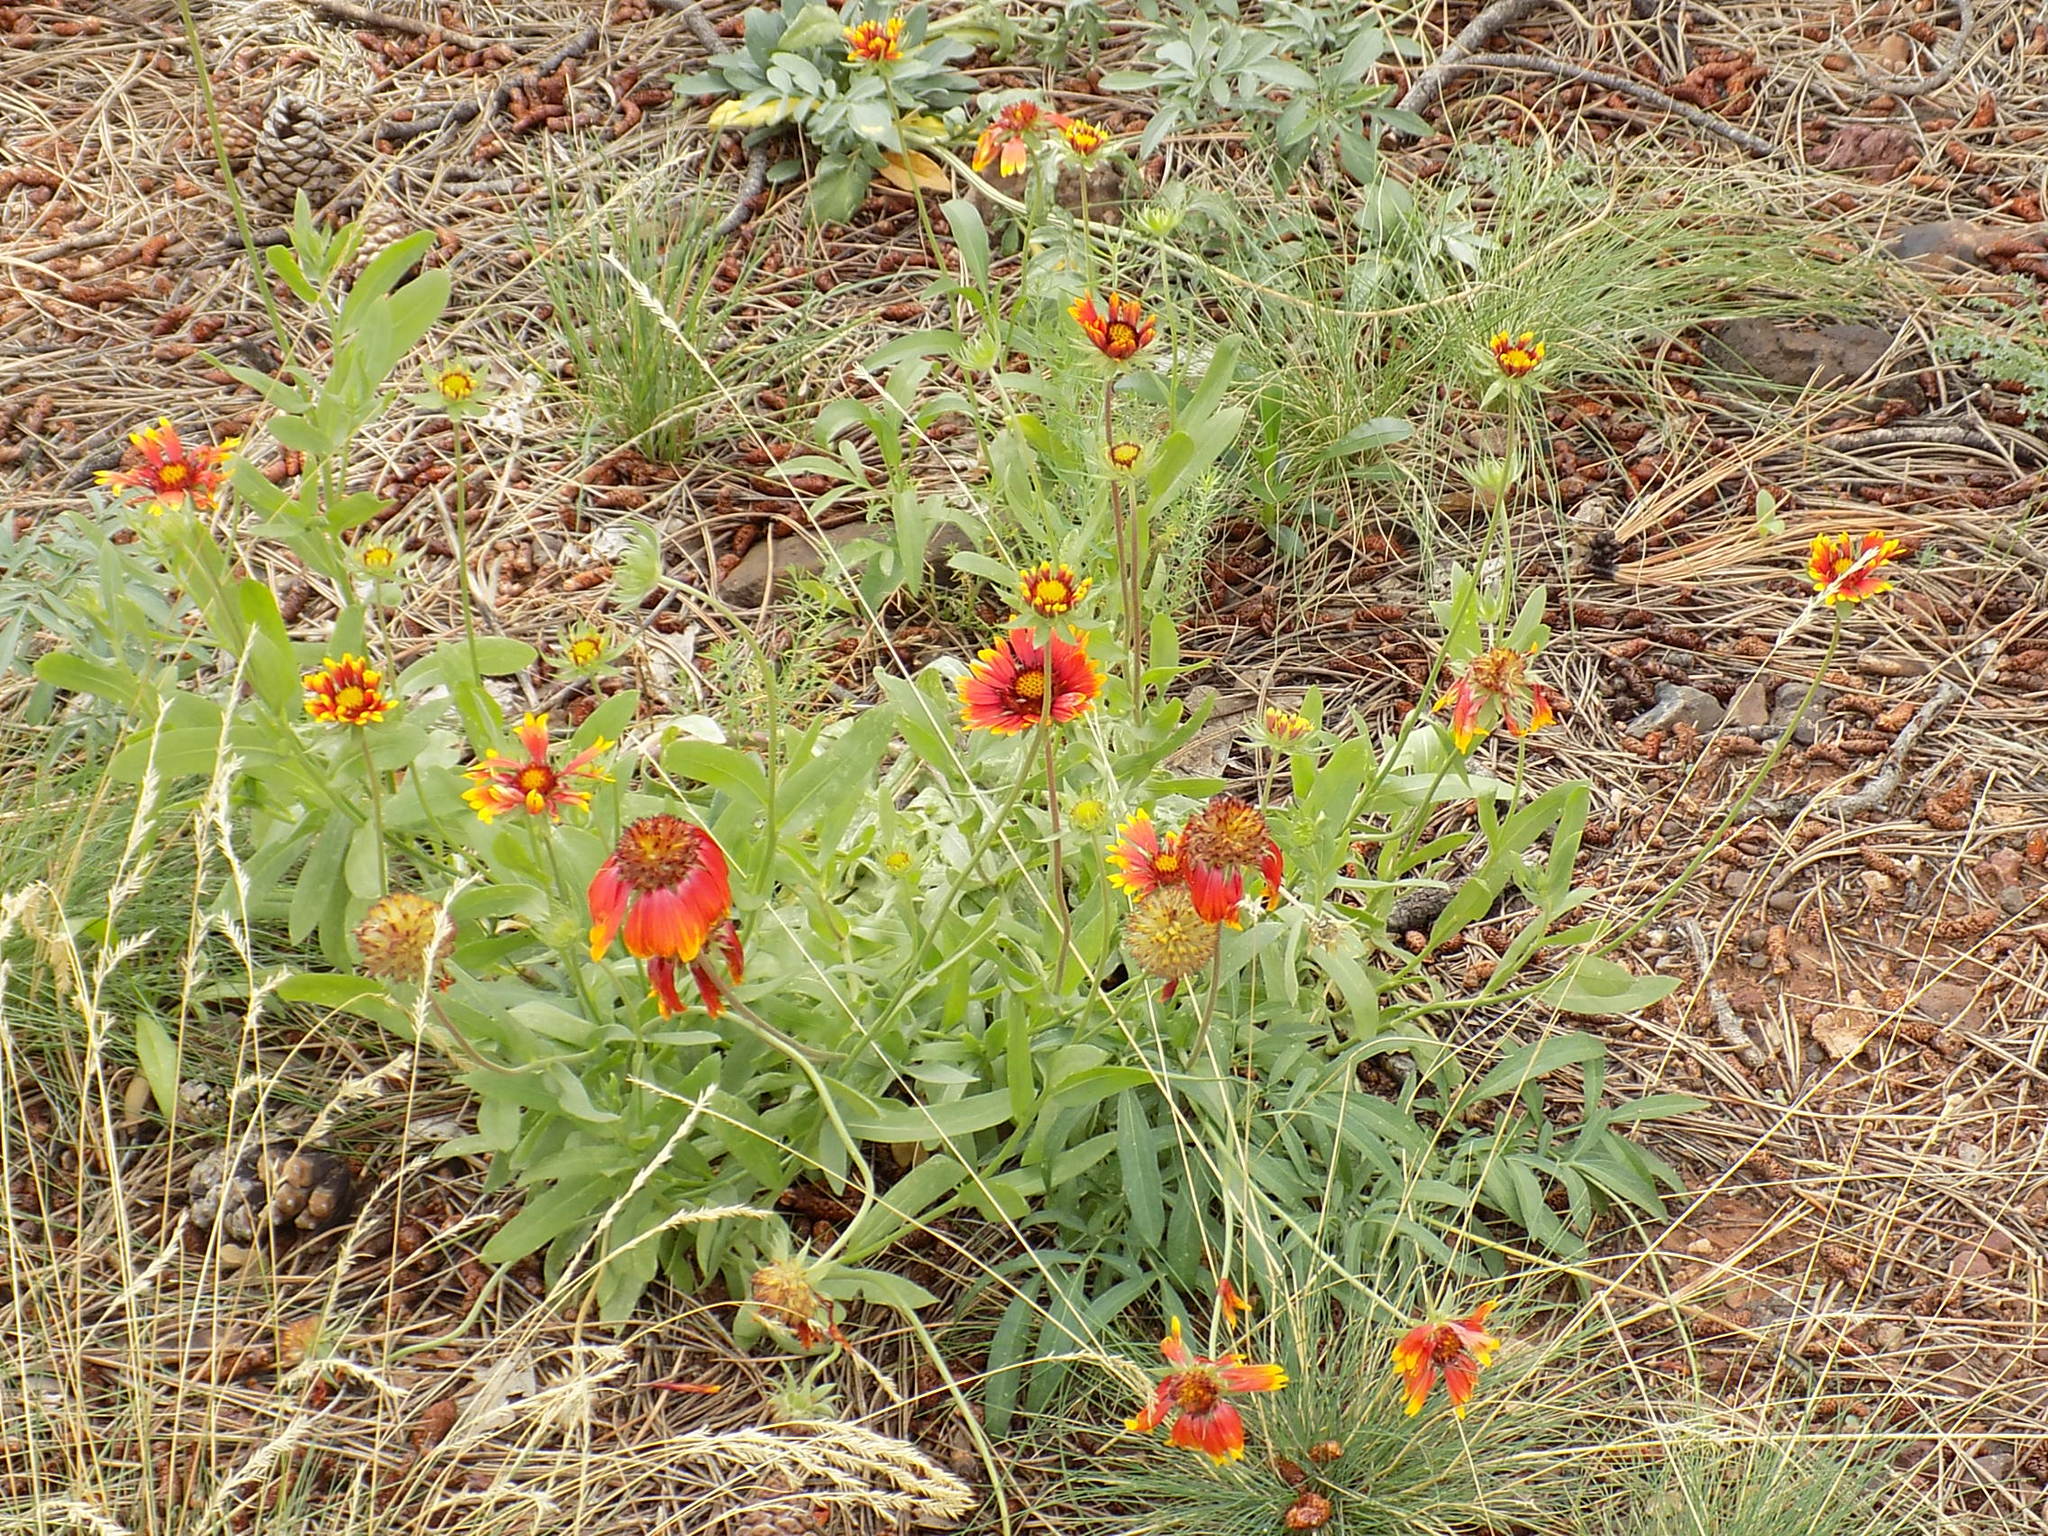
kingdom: Plantae
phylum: Tracheophyta
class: Magnoliopsida
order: Asterales
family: Asteraceae
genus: Gaillardia
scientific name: Gaillardia pulchella
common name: Firewheel
